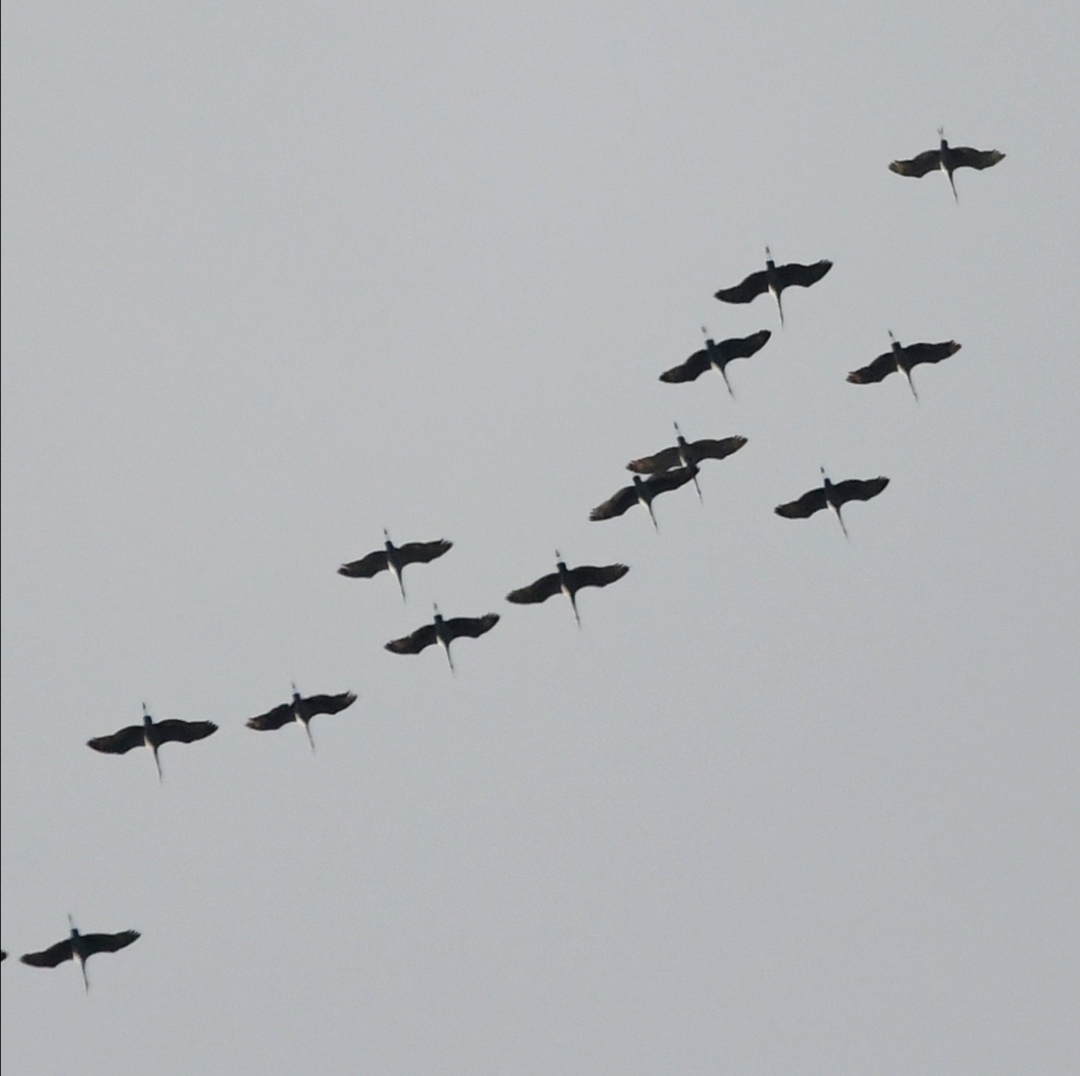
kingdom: Animalia
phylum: Chordata
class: Aves
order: Gruiformes
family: Gruidae
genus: Grus
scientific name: Grus canadensis
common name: Sandhill crane
